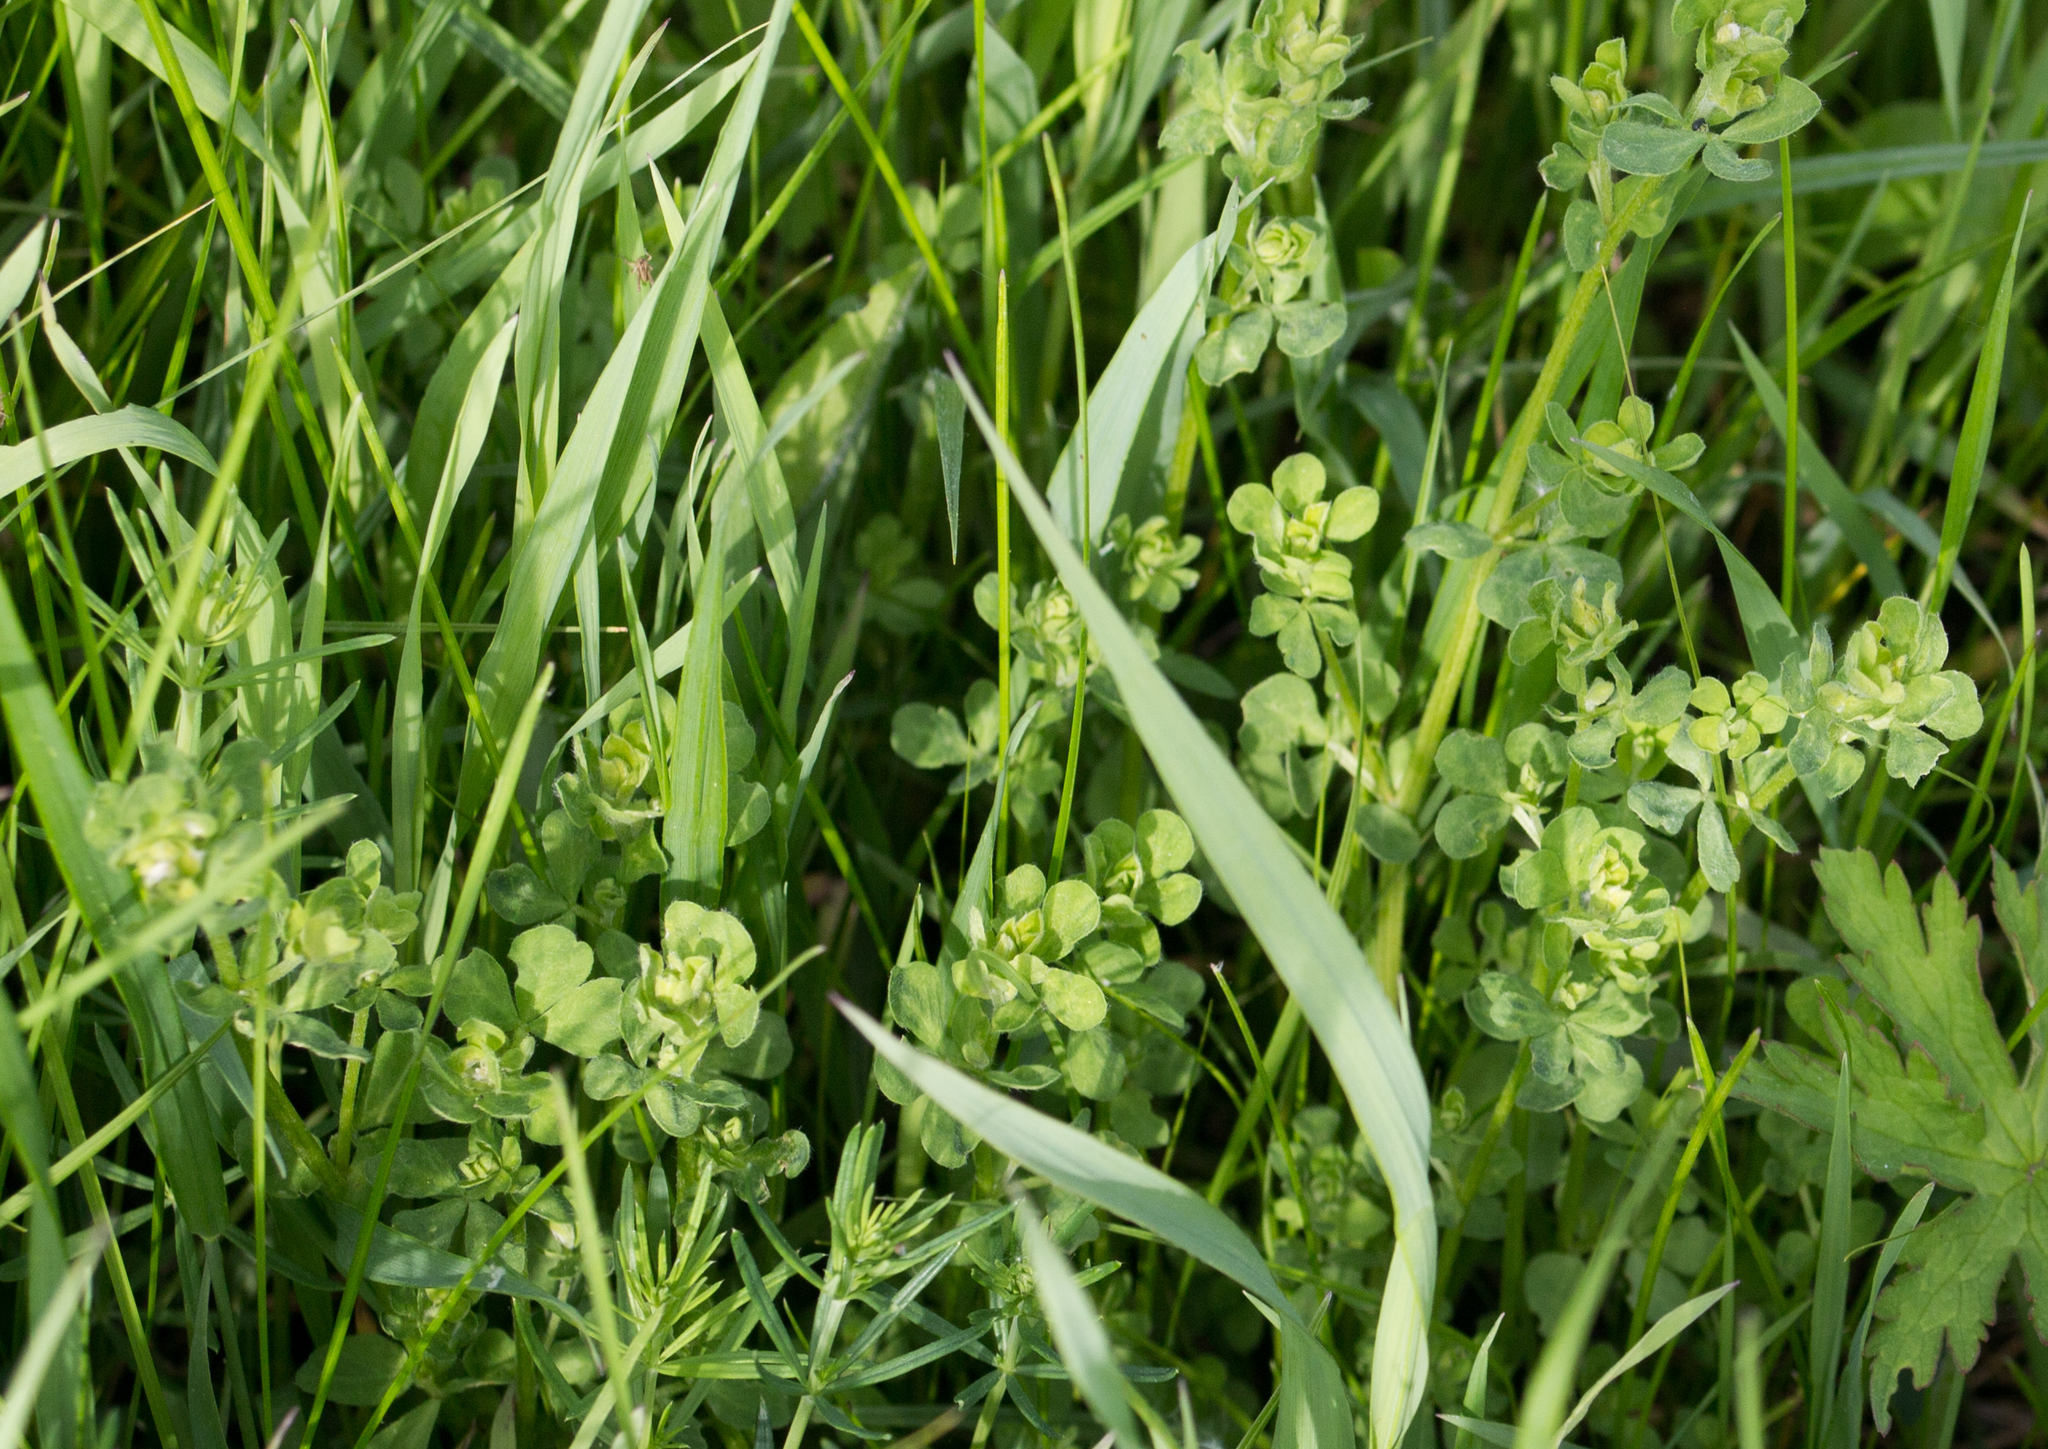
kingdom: Plantae
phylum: Tracheophyta
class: Magnoliopsida
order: Fabales
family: Fabaceae
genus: Lotus
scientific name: Lotus corniculatus
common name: Common bird's-foot-trefoil
